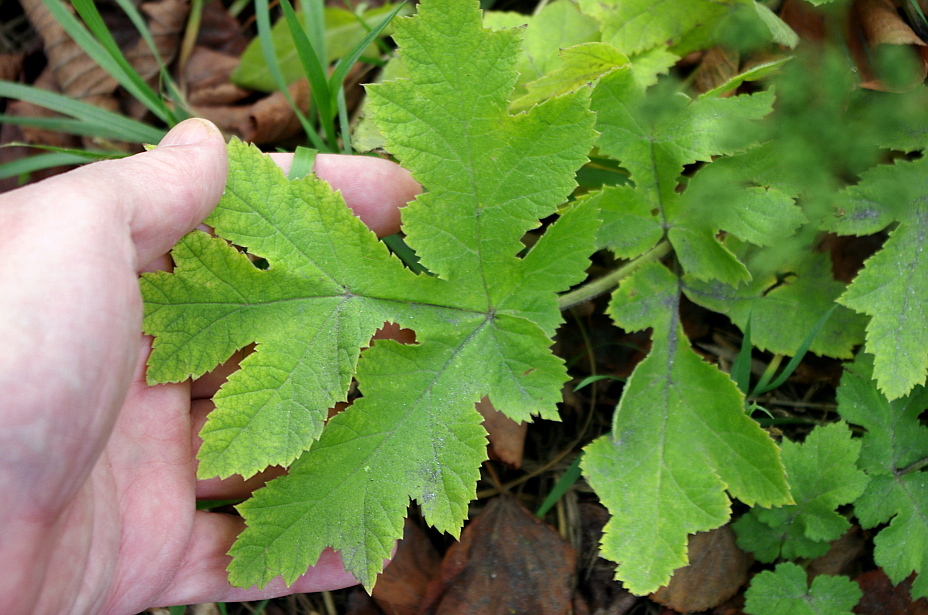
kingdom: Plantae
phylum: Tracheophyta
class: Magnoliopsida
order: Apiales
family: Apiaceae
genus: Heracleum
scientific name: Heracleum sphondylium
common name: Hogweed
